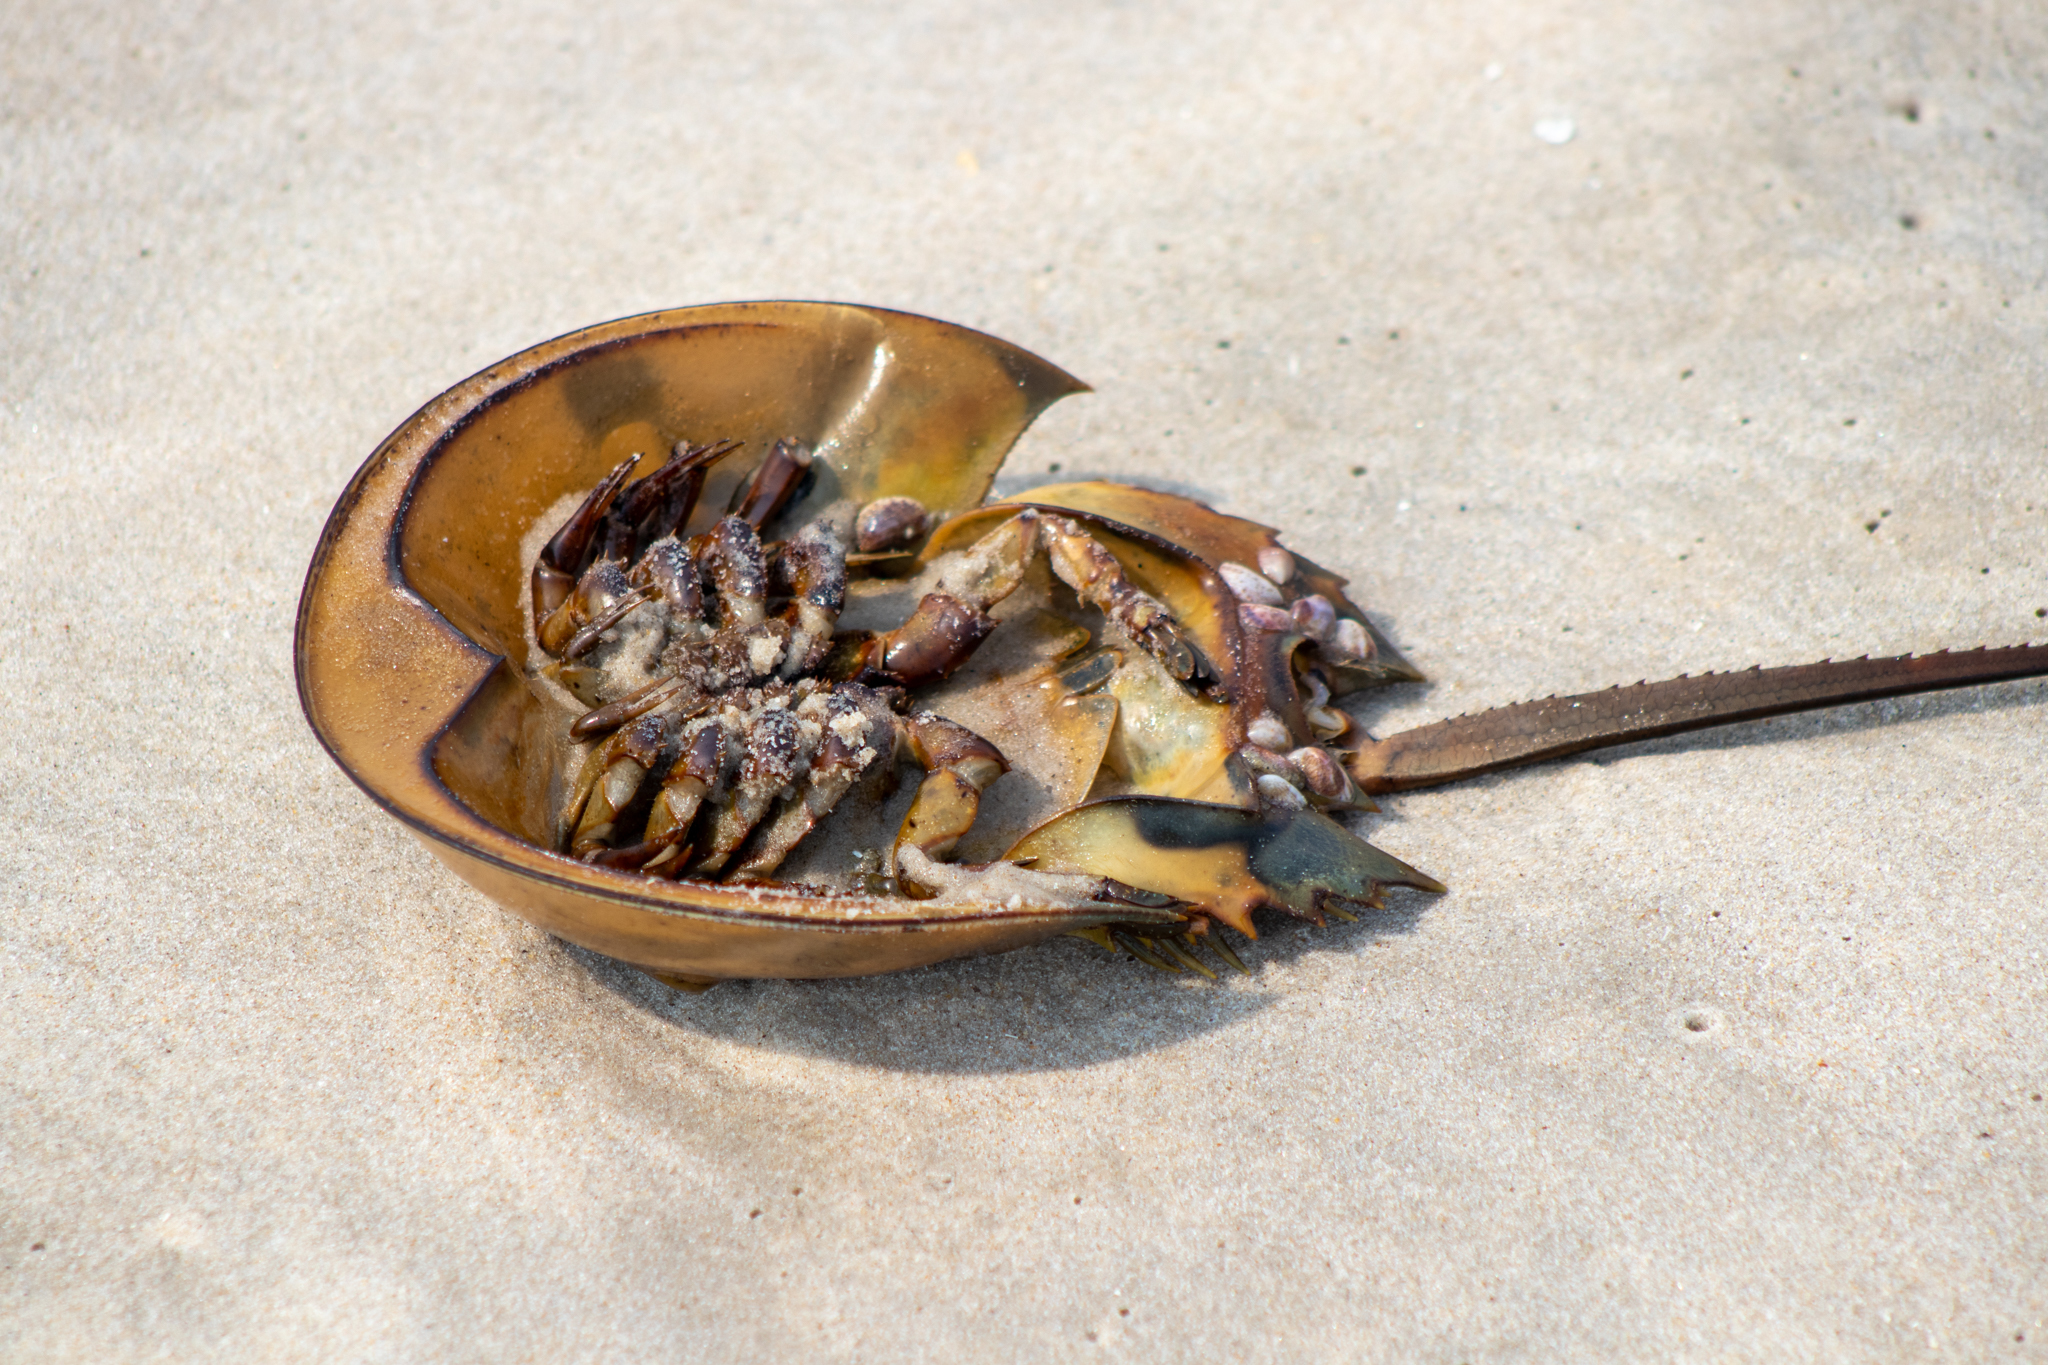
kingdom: Animalia
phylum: Arthropoda
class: Merostomata
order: Xiphosurida
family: Limulidae
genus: Limulus
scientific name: Limulus polyphemus
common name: Horseshoe crab
